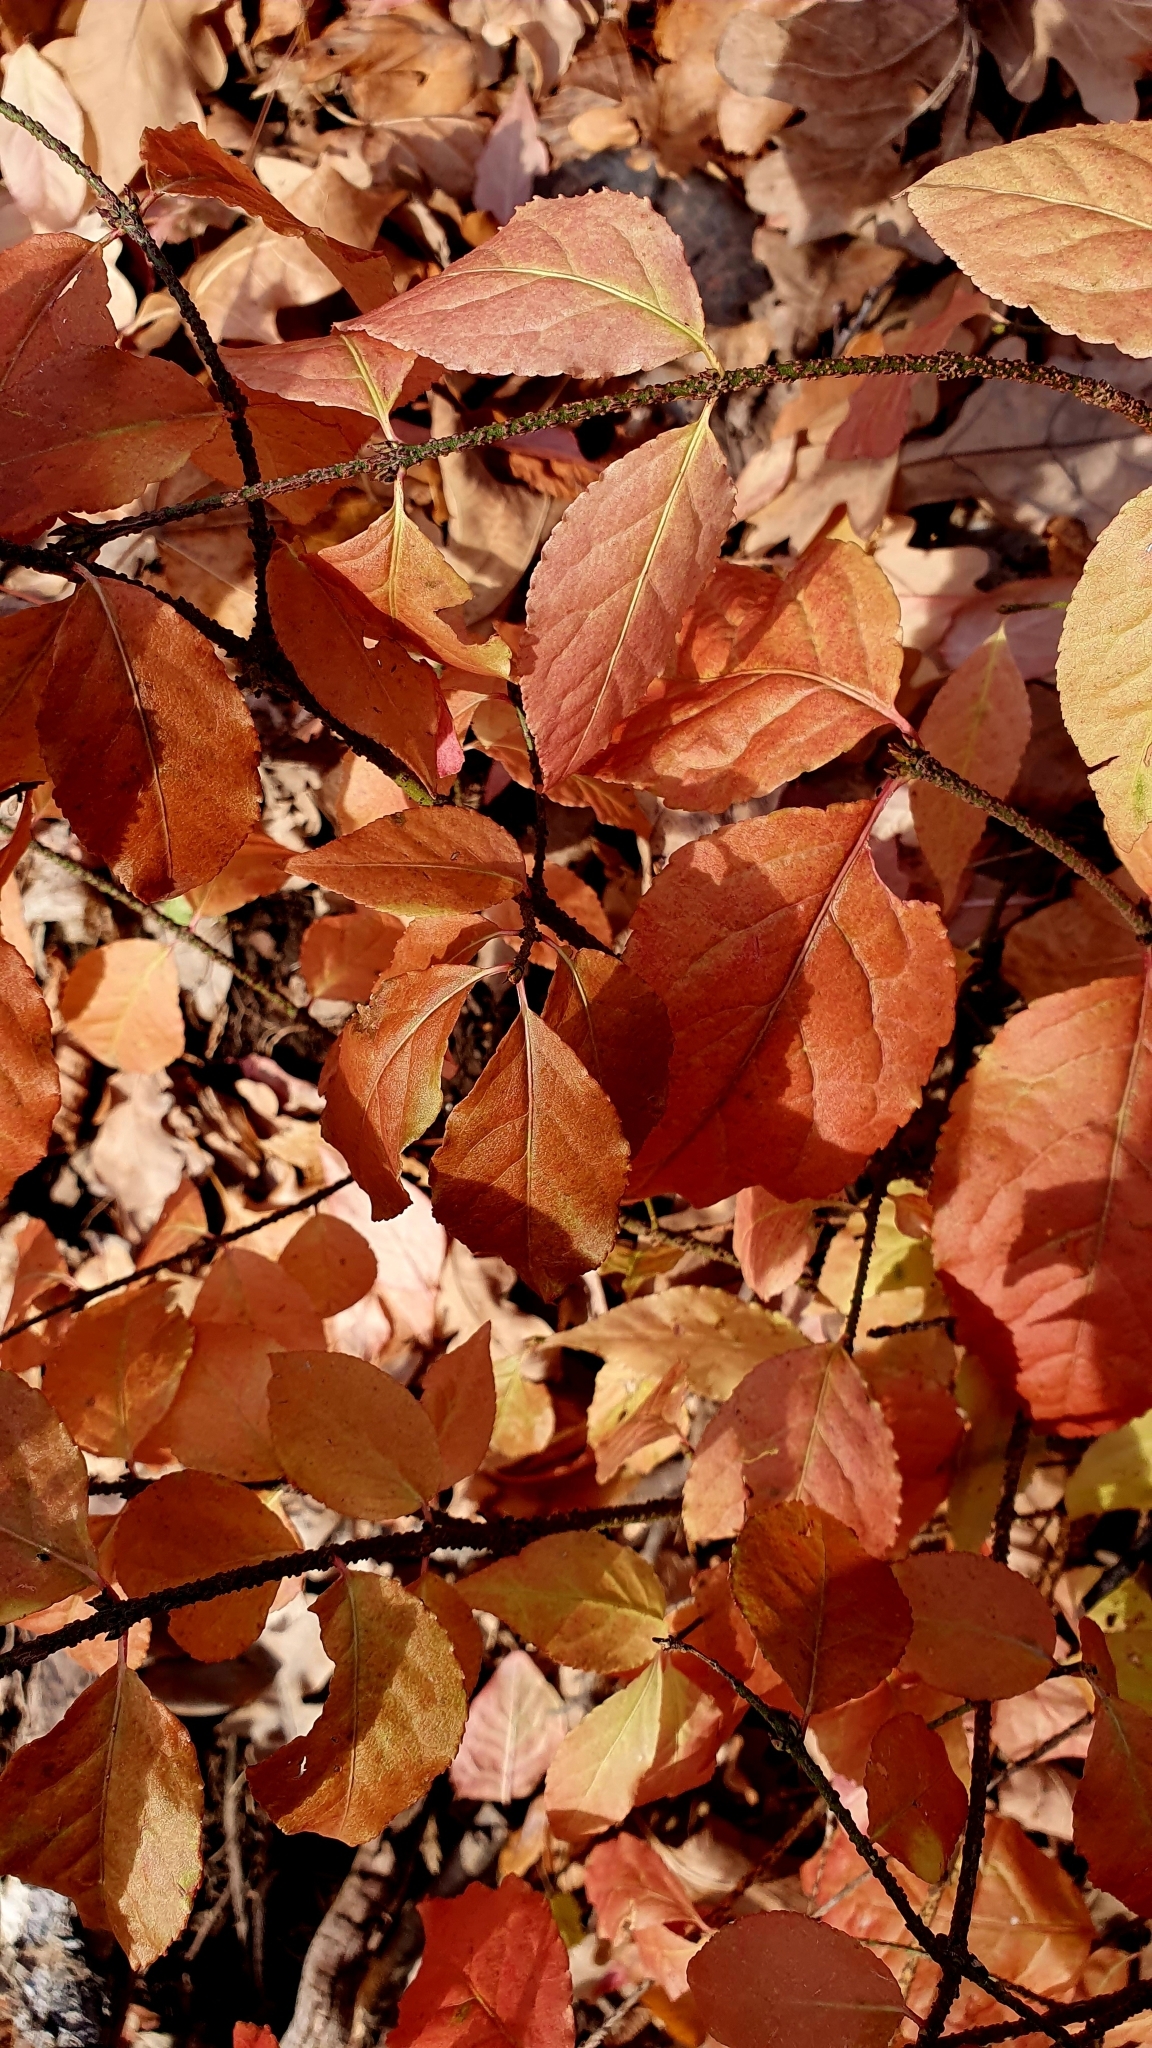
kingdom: Plantae
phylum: Tracheophyta
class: Magnoliopsida
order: Celastrales
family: Celastraceae
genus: Euonymus
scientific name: Euonymus verrucosus
